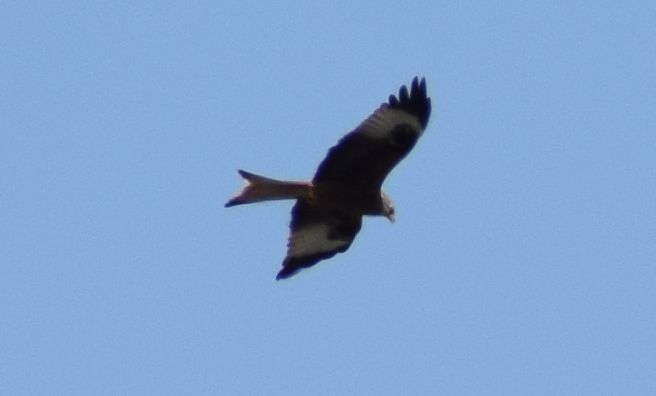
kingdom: Animalia
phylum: Chordata
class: Aves
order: Accipitriformes
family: Accipitridae
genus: Milvus
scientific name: Milvus milvus
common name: Red kite
